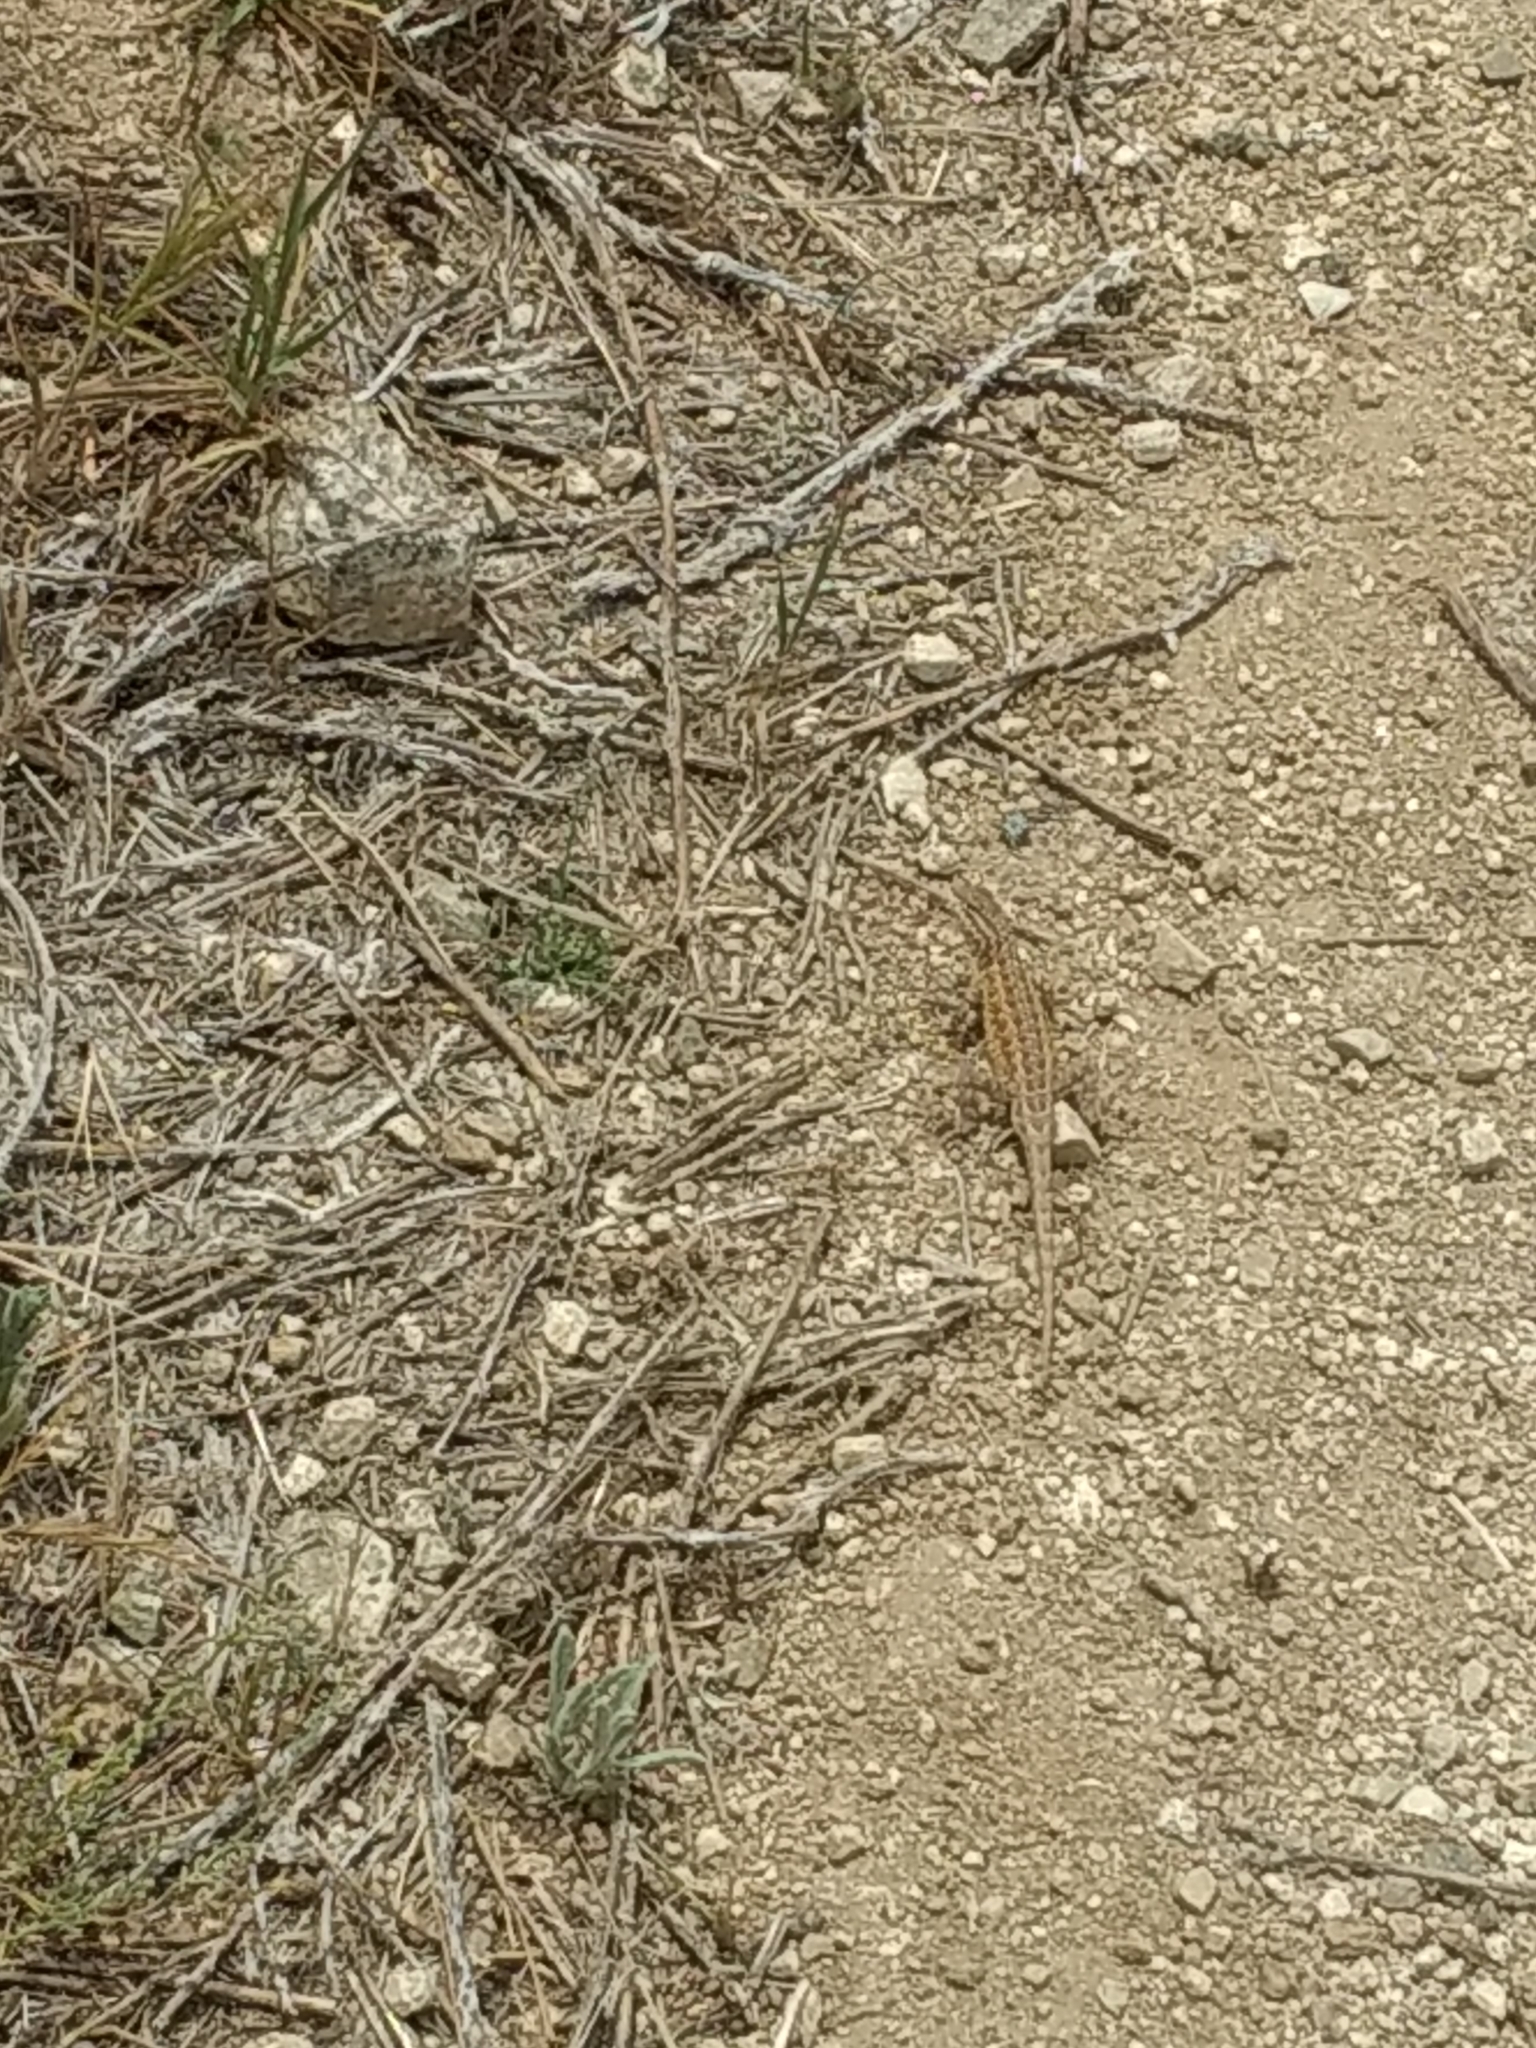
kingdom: Animalia
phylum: Chordata
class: Squamata
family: Phrynosomatidae
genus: Uta
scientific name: Uta stansburiana
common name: Side-blotched lizard
